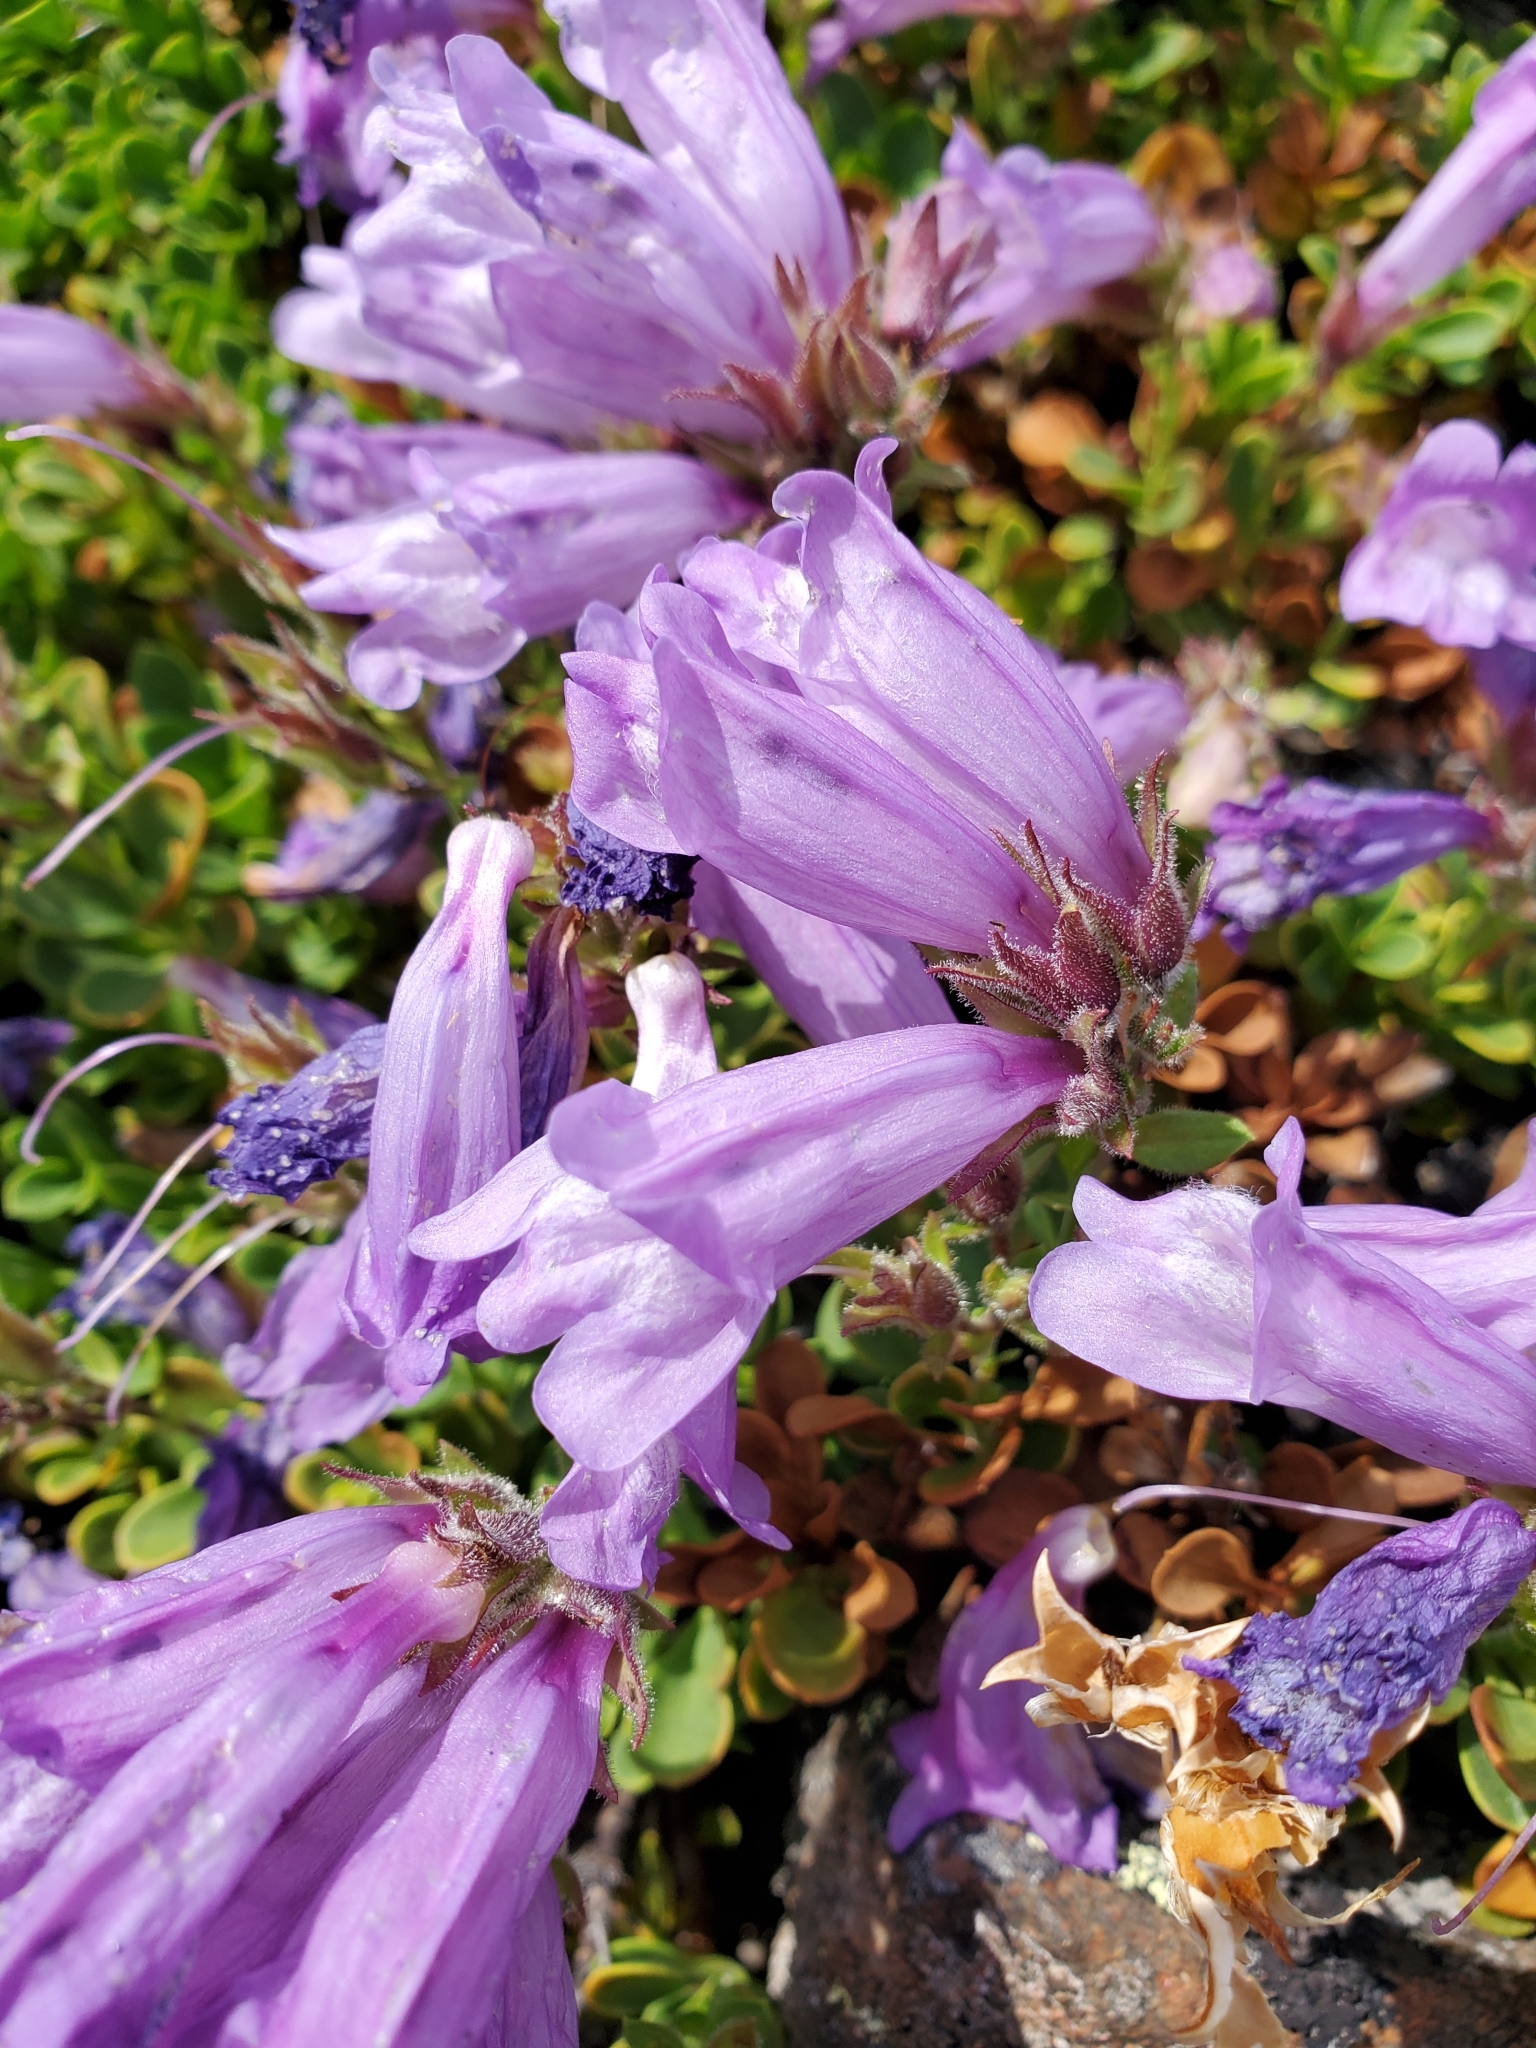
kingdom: Plantae
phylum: Tracheophyta
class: Magnoliopsida
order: Lamiales
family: Plantaginaceae
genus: Penstemon
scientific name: Penstemon davidsonii
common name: Davidson's penstemon
